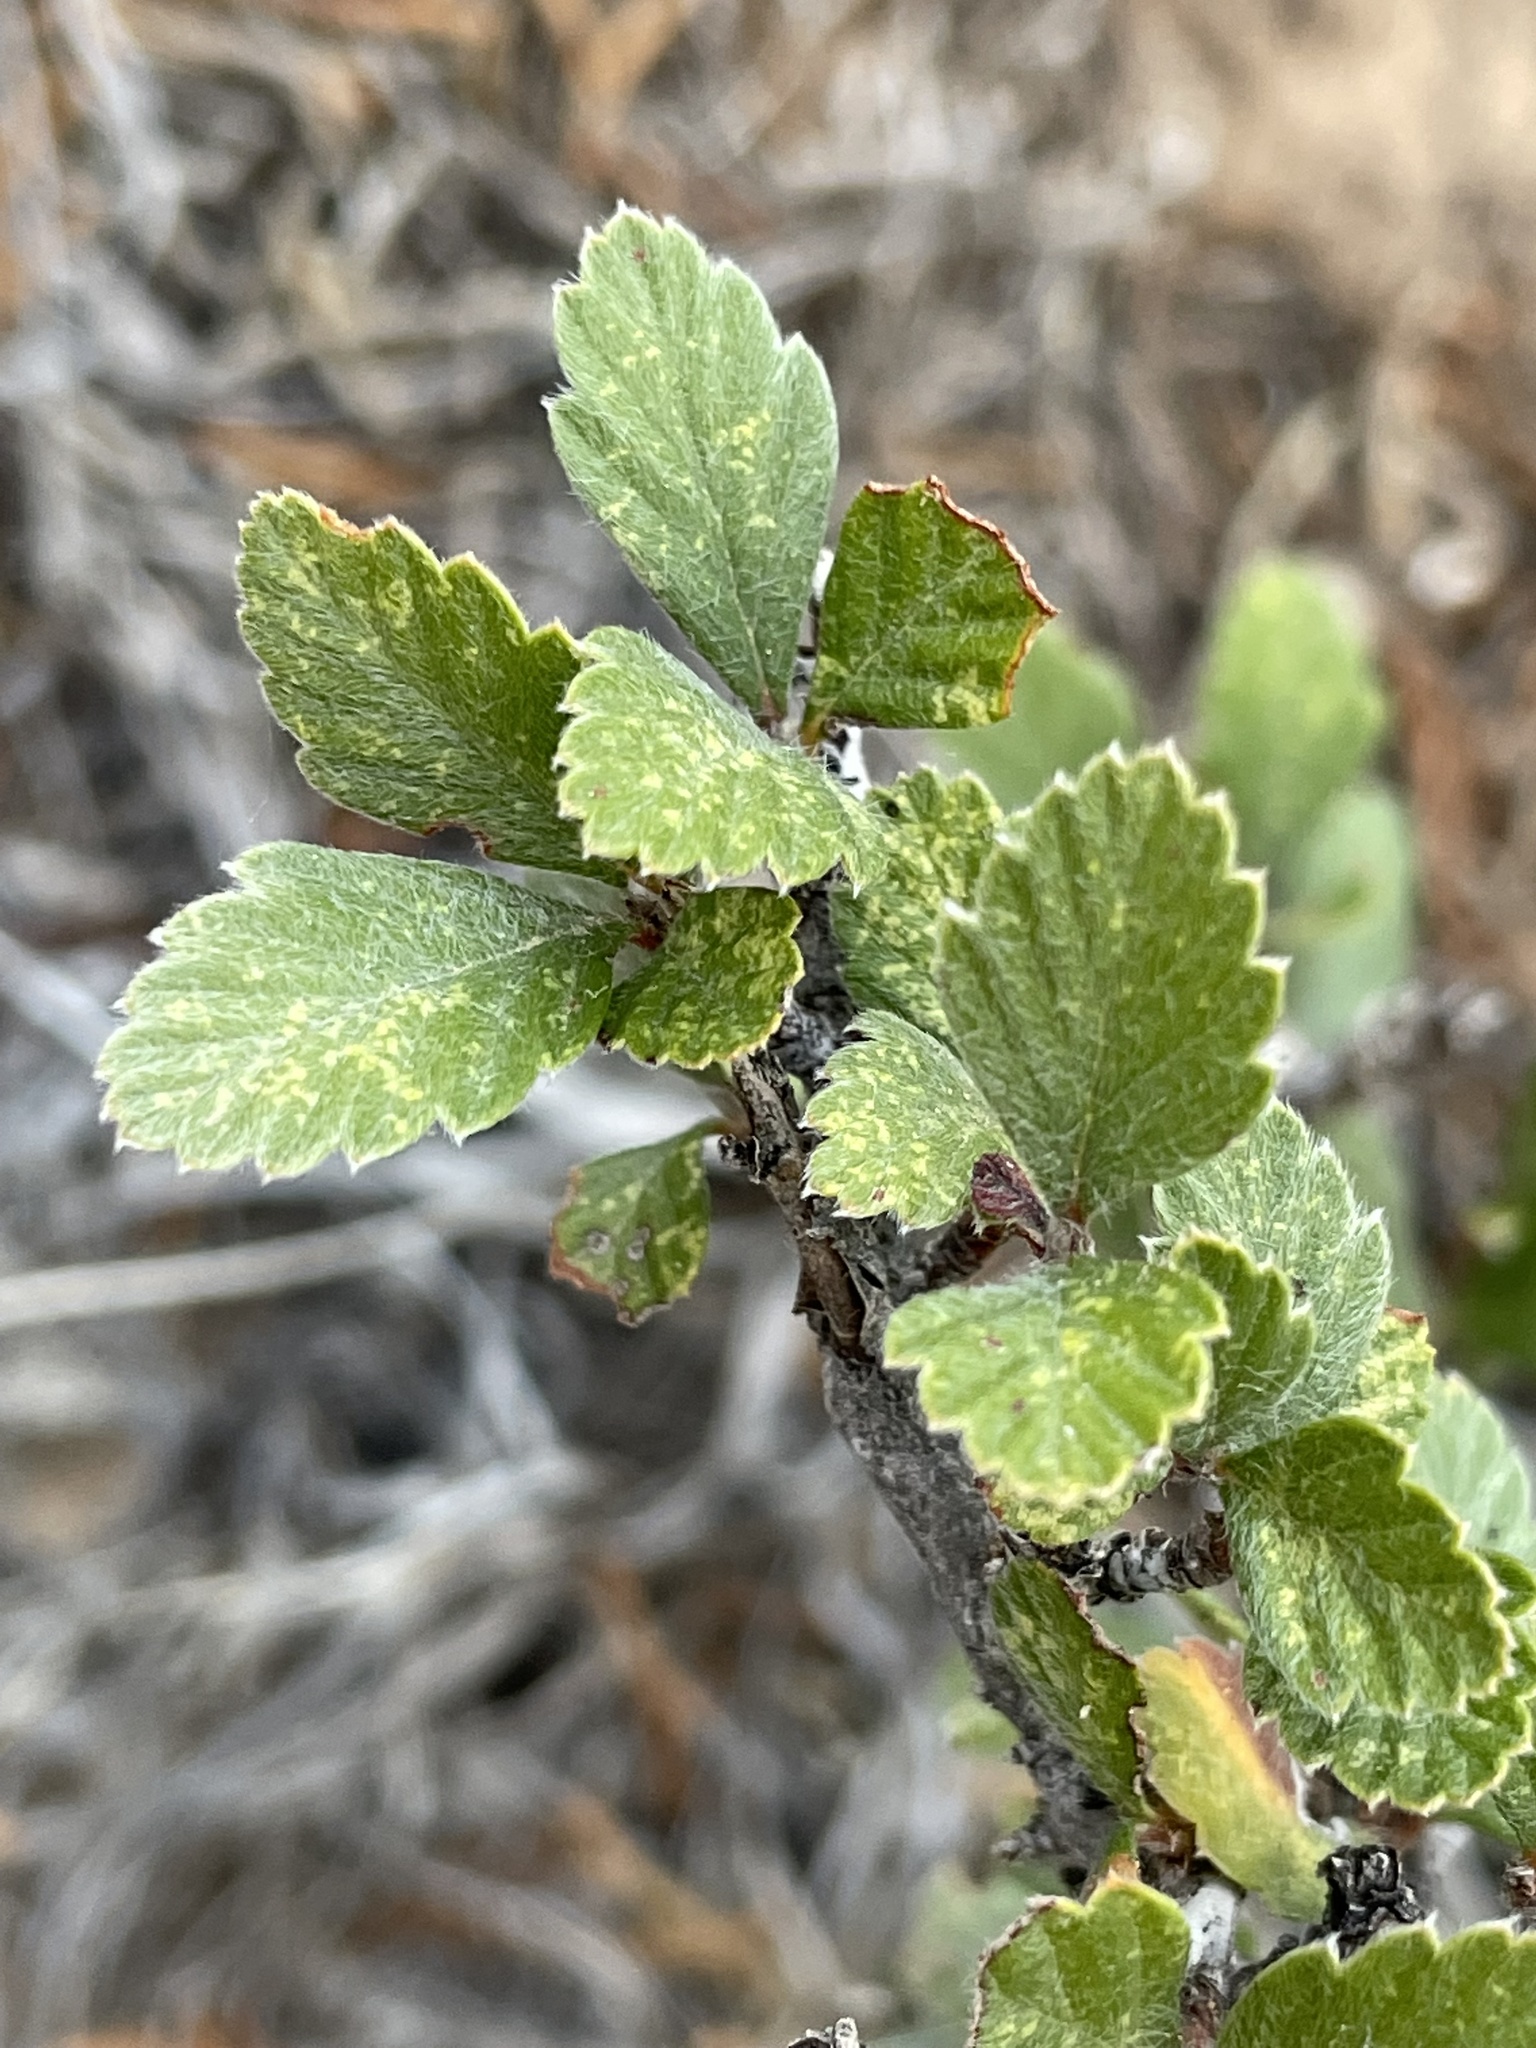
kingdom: Plantae
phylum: Tracheophyta
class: Magnoliopsida
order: Rosales
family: Rosaceae
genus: Cercocarpus
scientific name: Cercocarpus montanus
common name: Alder-leaf cercocarpus
